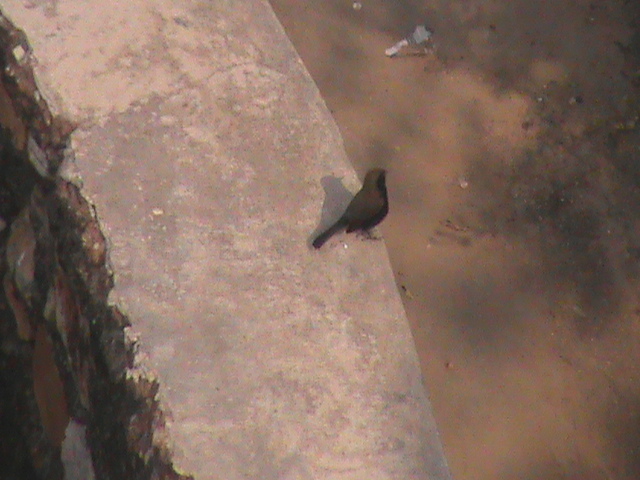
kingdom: Animalia
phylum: Chordata
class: Aves
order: Passeriformes
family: Muscicapidae
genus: Saxicoloides
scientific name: Saxicoloides fulicatus
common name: Indian robin
